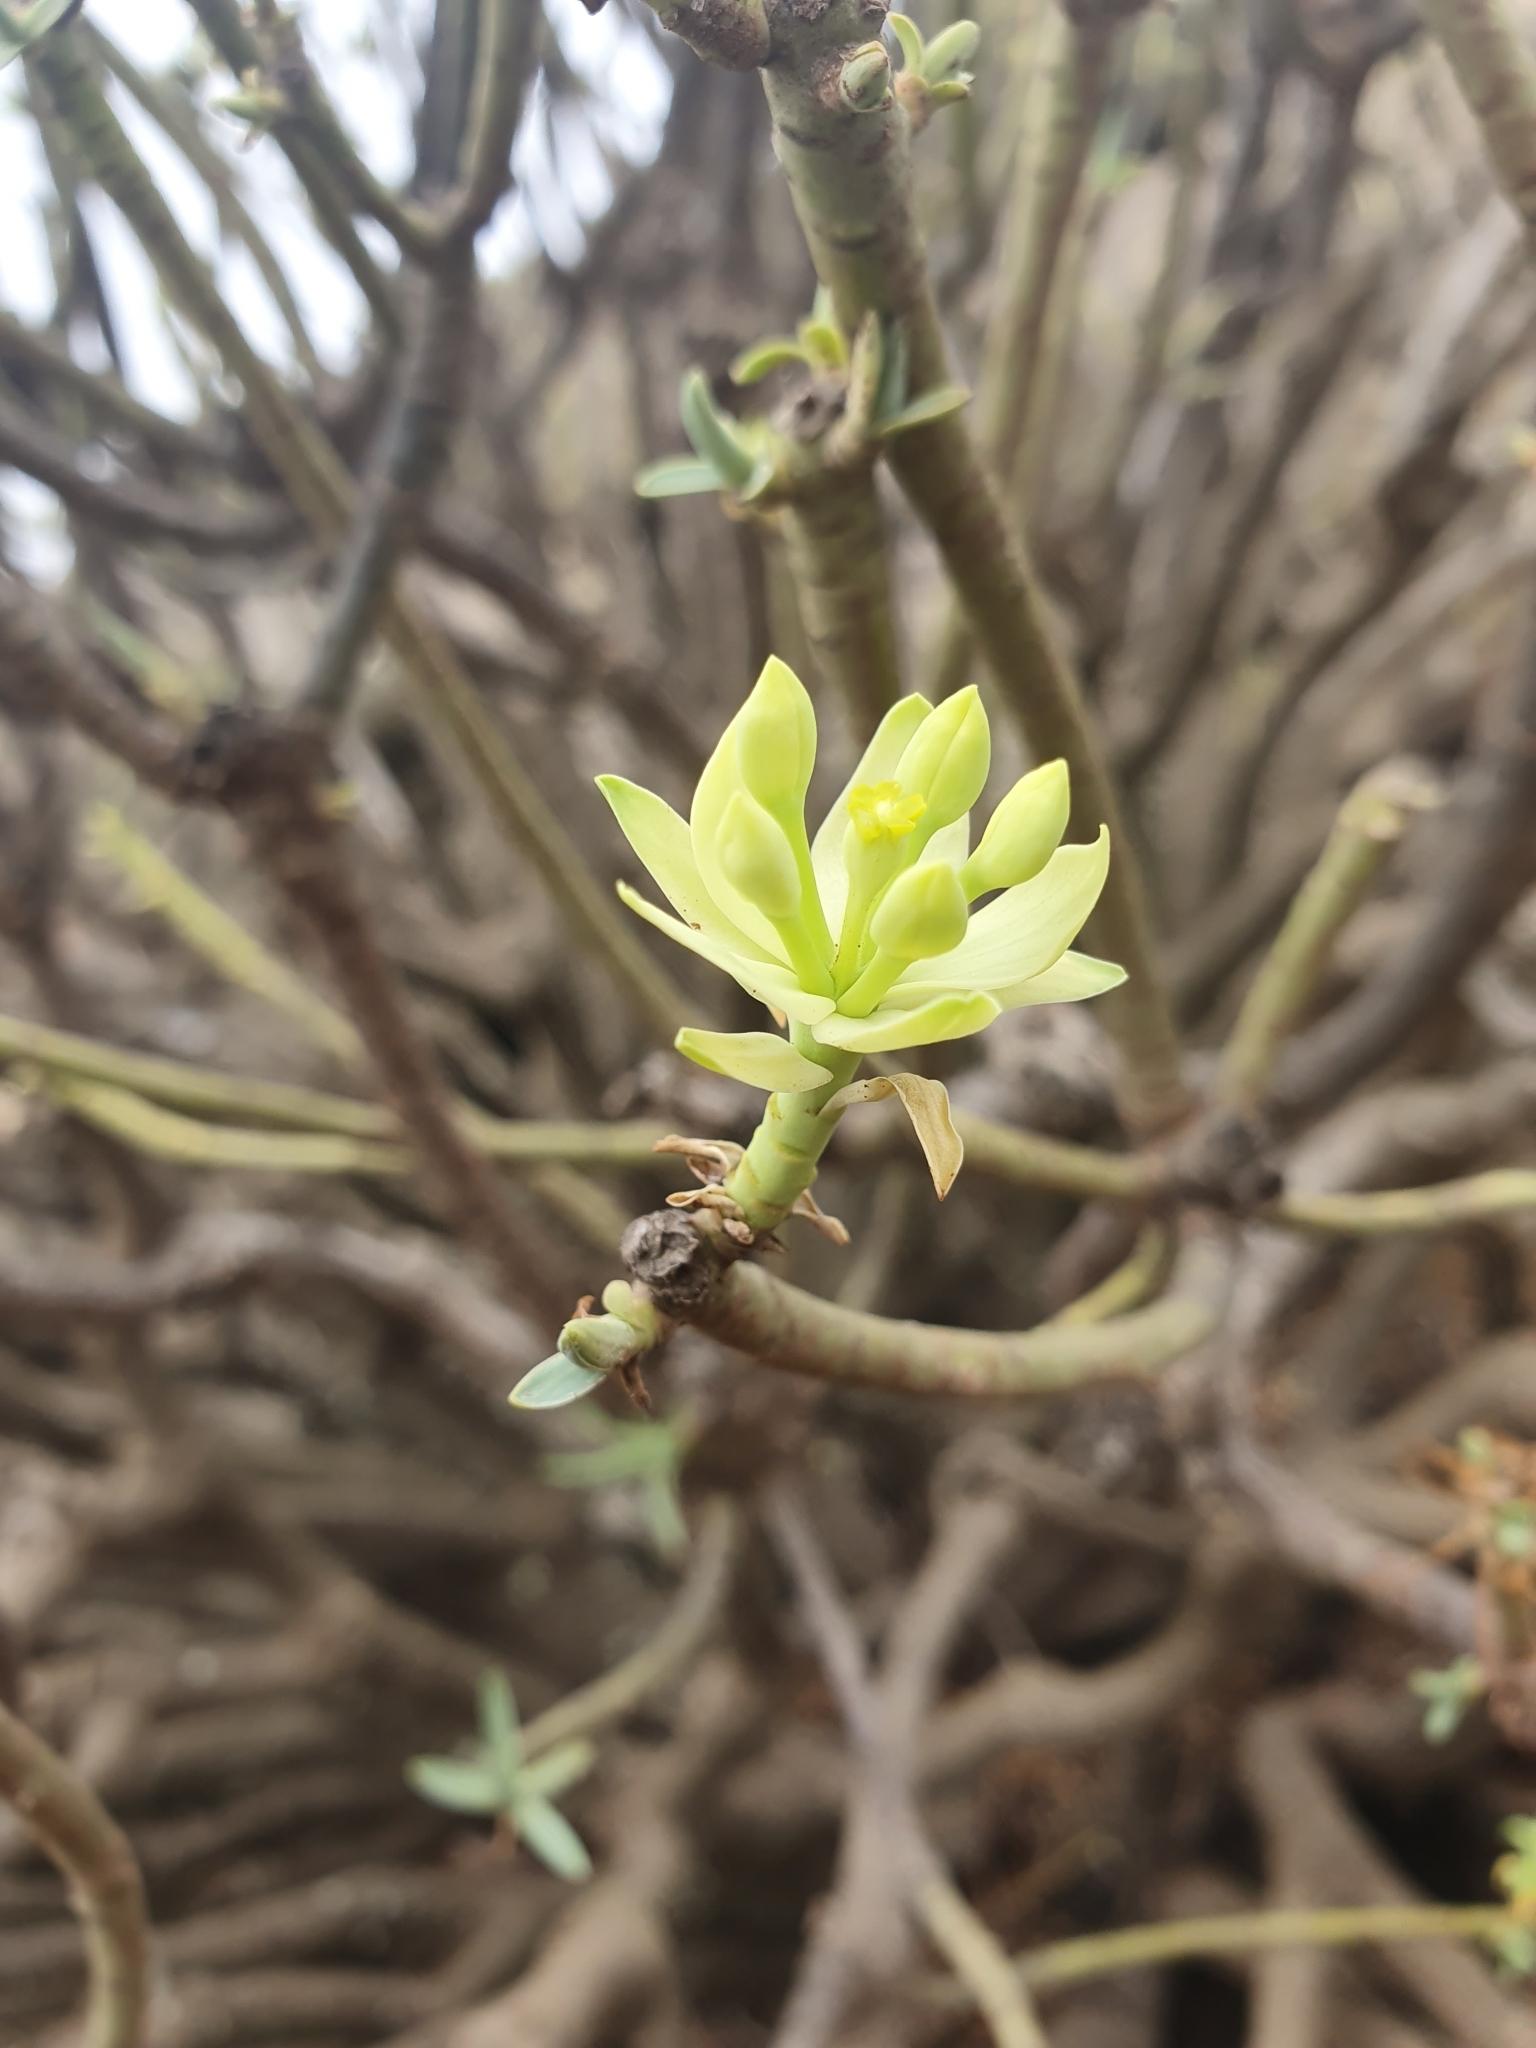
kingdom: Plantae
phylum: Tracheophyta
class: Magnoliopsida
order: Malpighiales
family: Euphorbiaceae
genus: Euphorbia
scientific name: Euphorbia regis-jubae
